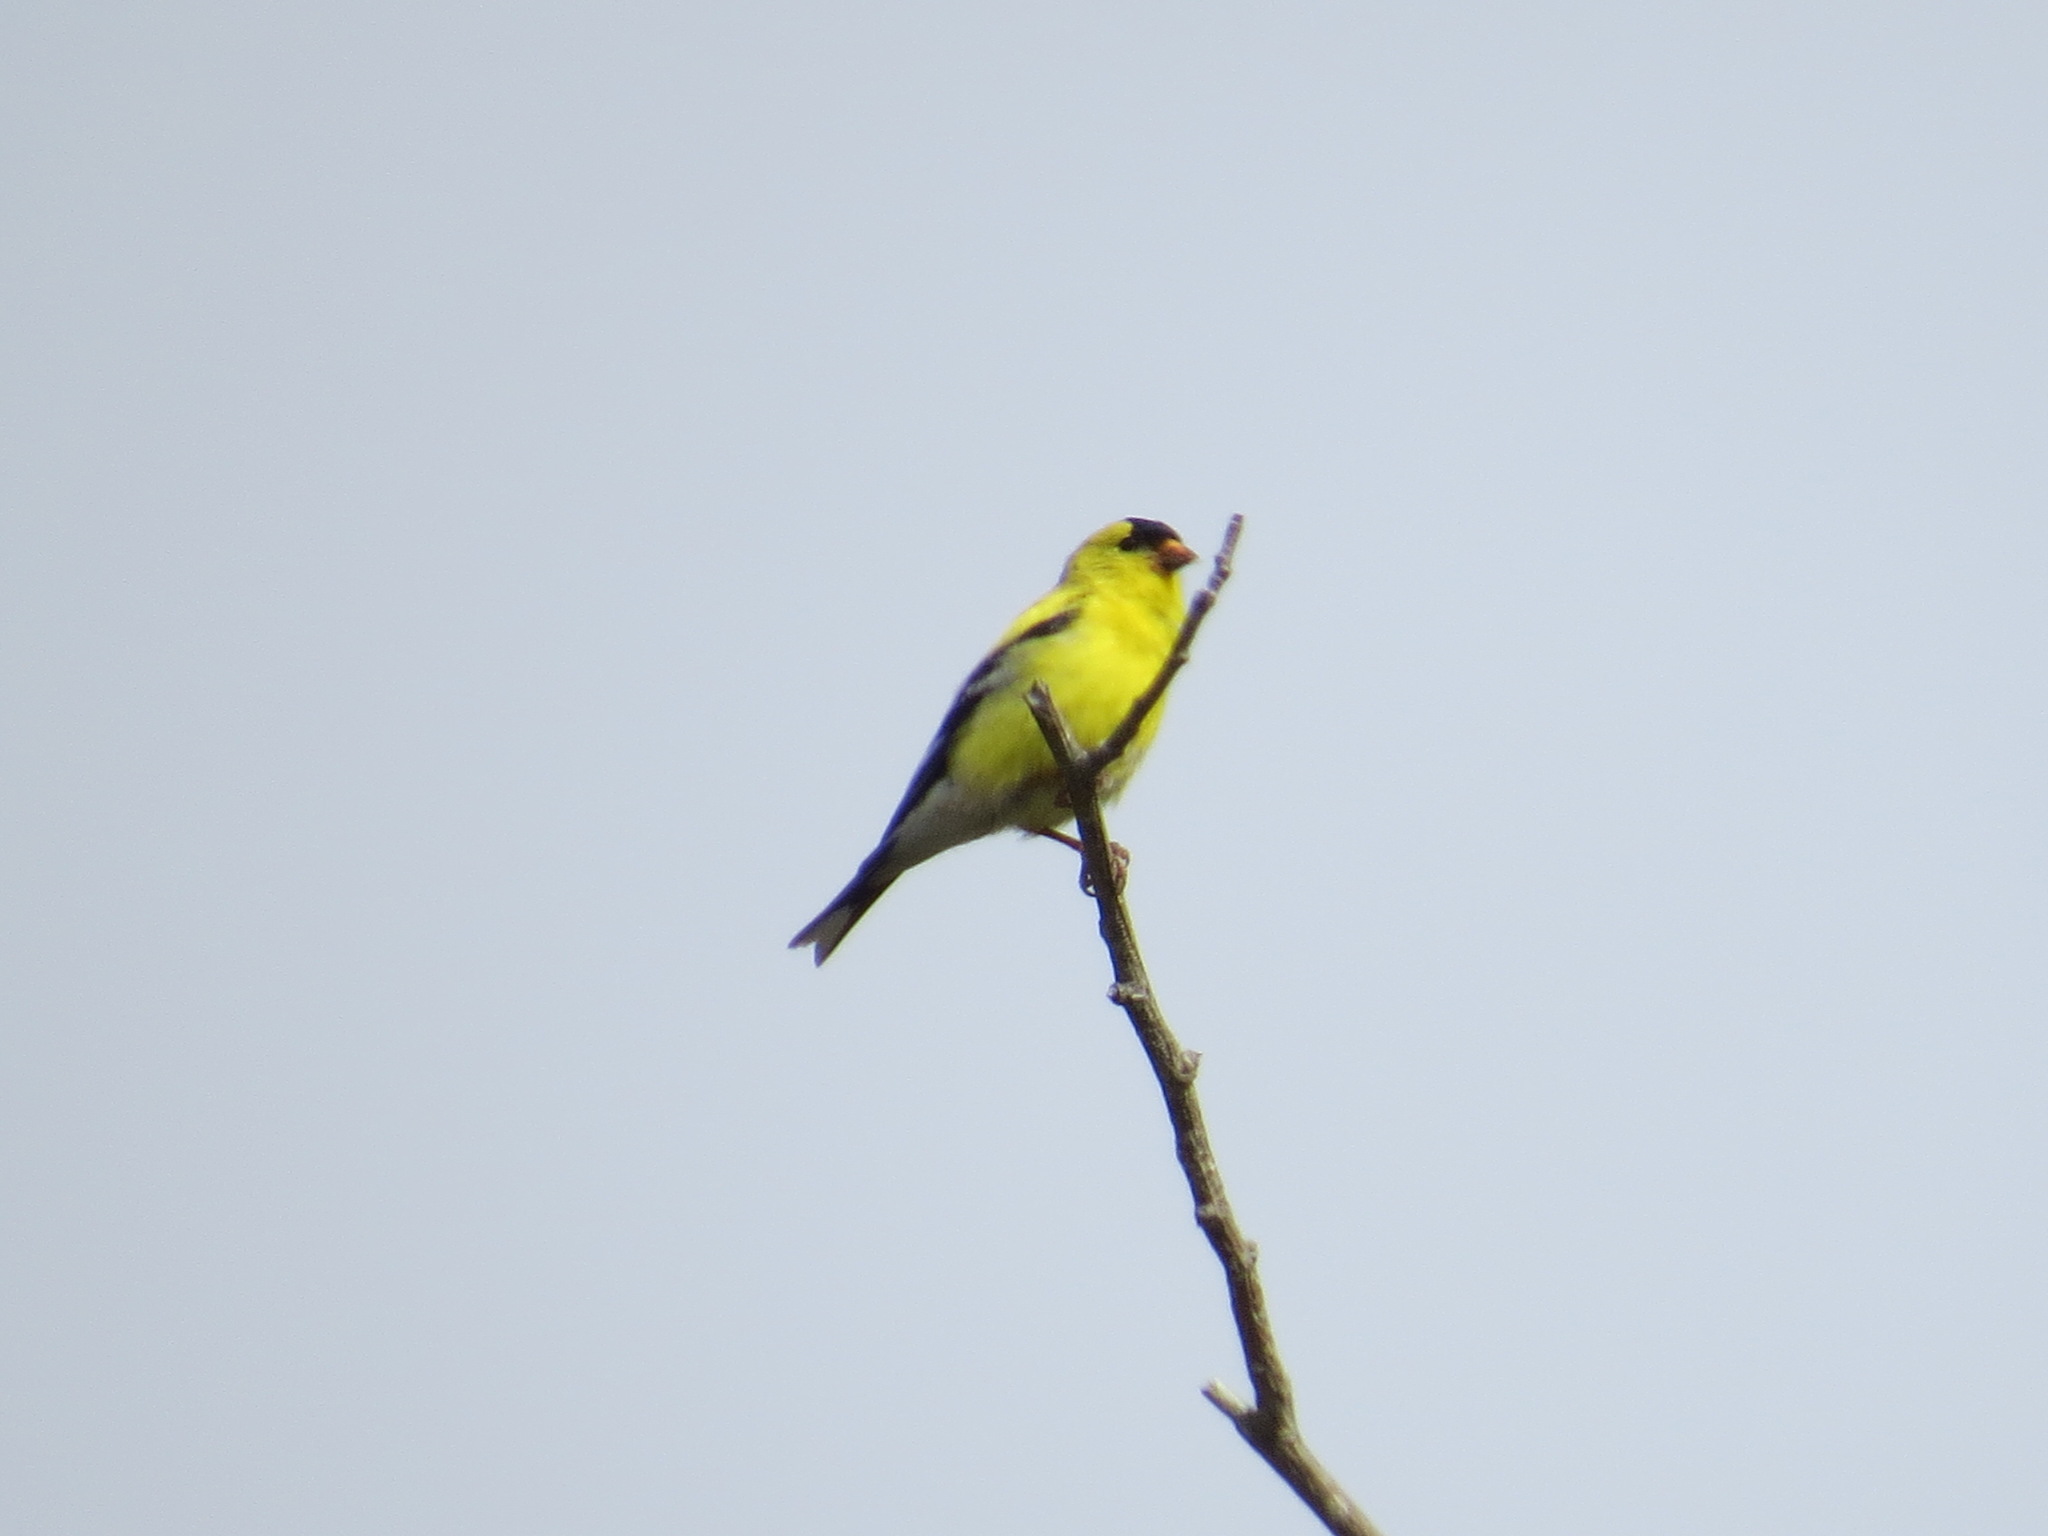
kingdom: Animalia
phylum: Chordata
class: Aves
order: Passeriformes
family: Fringillidae
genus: Spinus
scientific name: Spinus tristis
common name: American goldfinch
